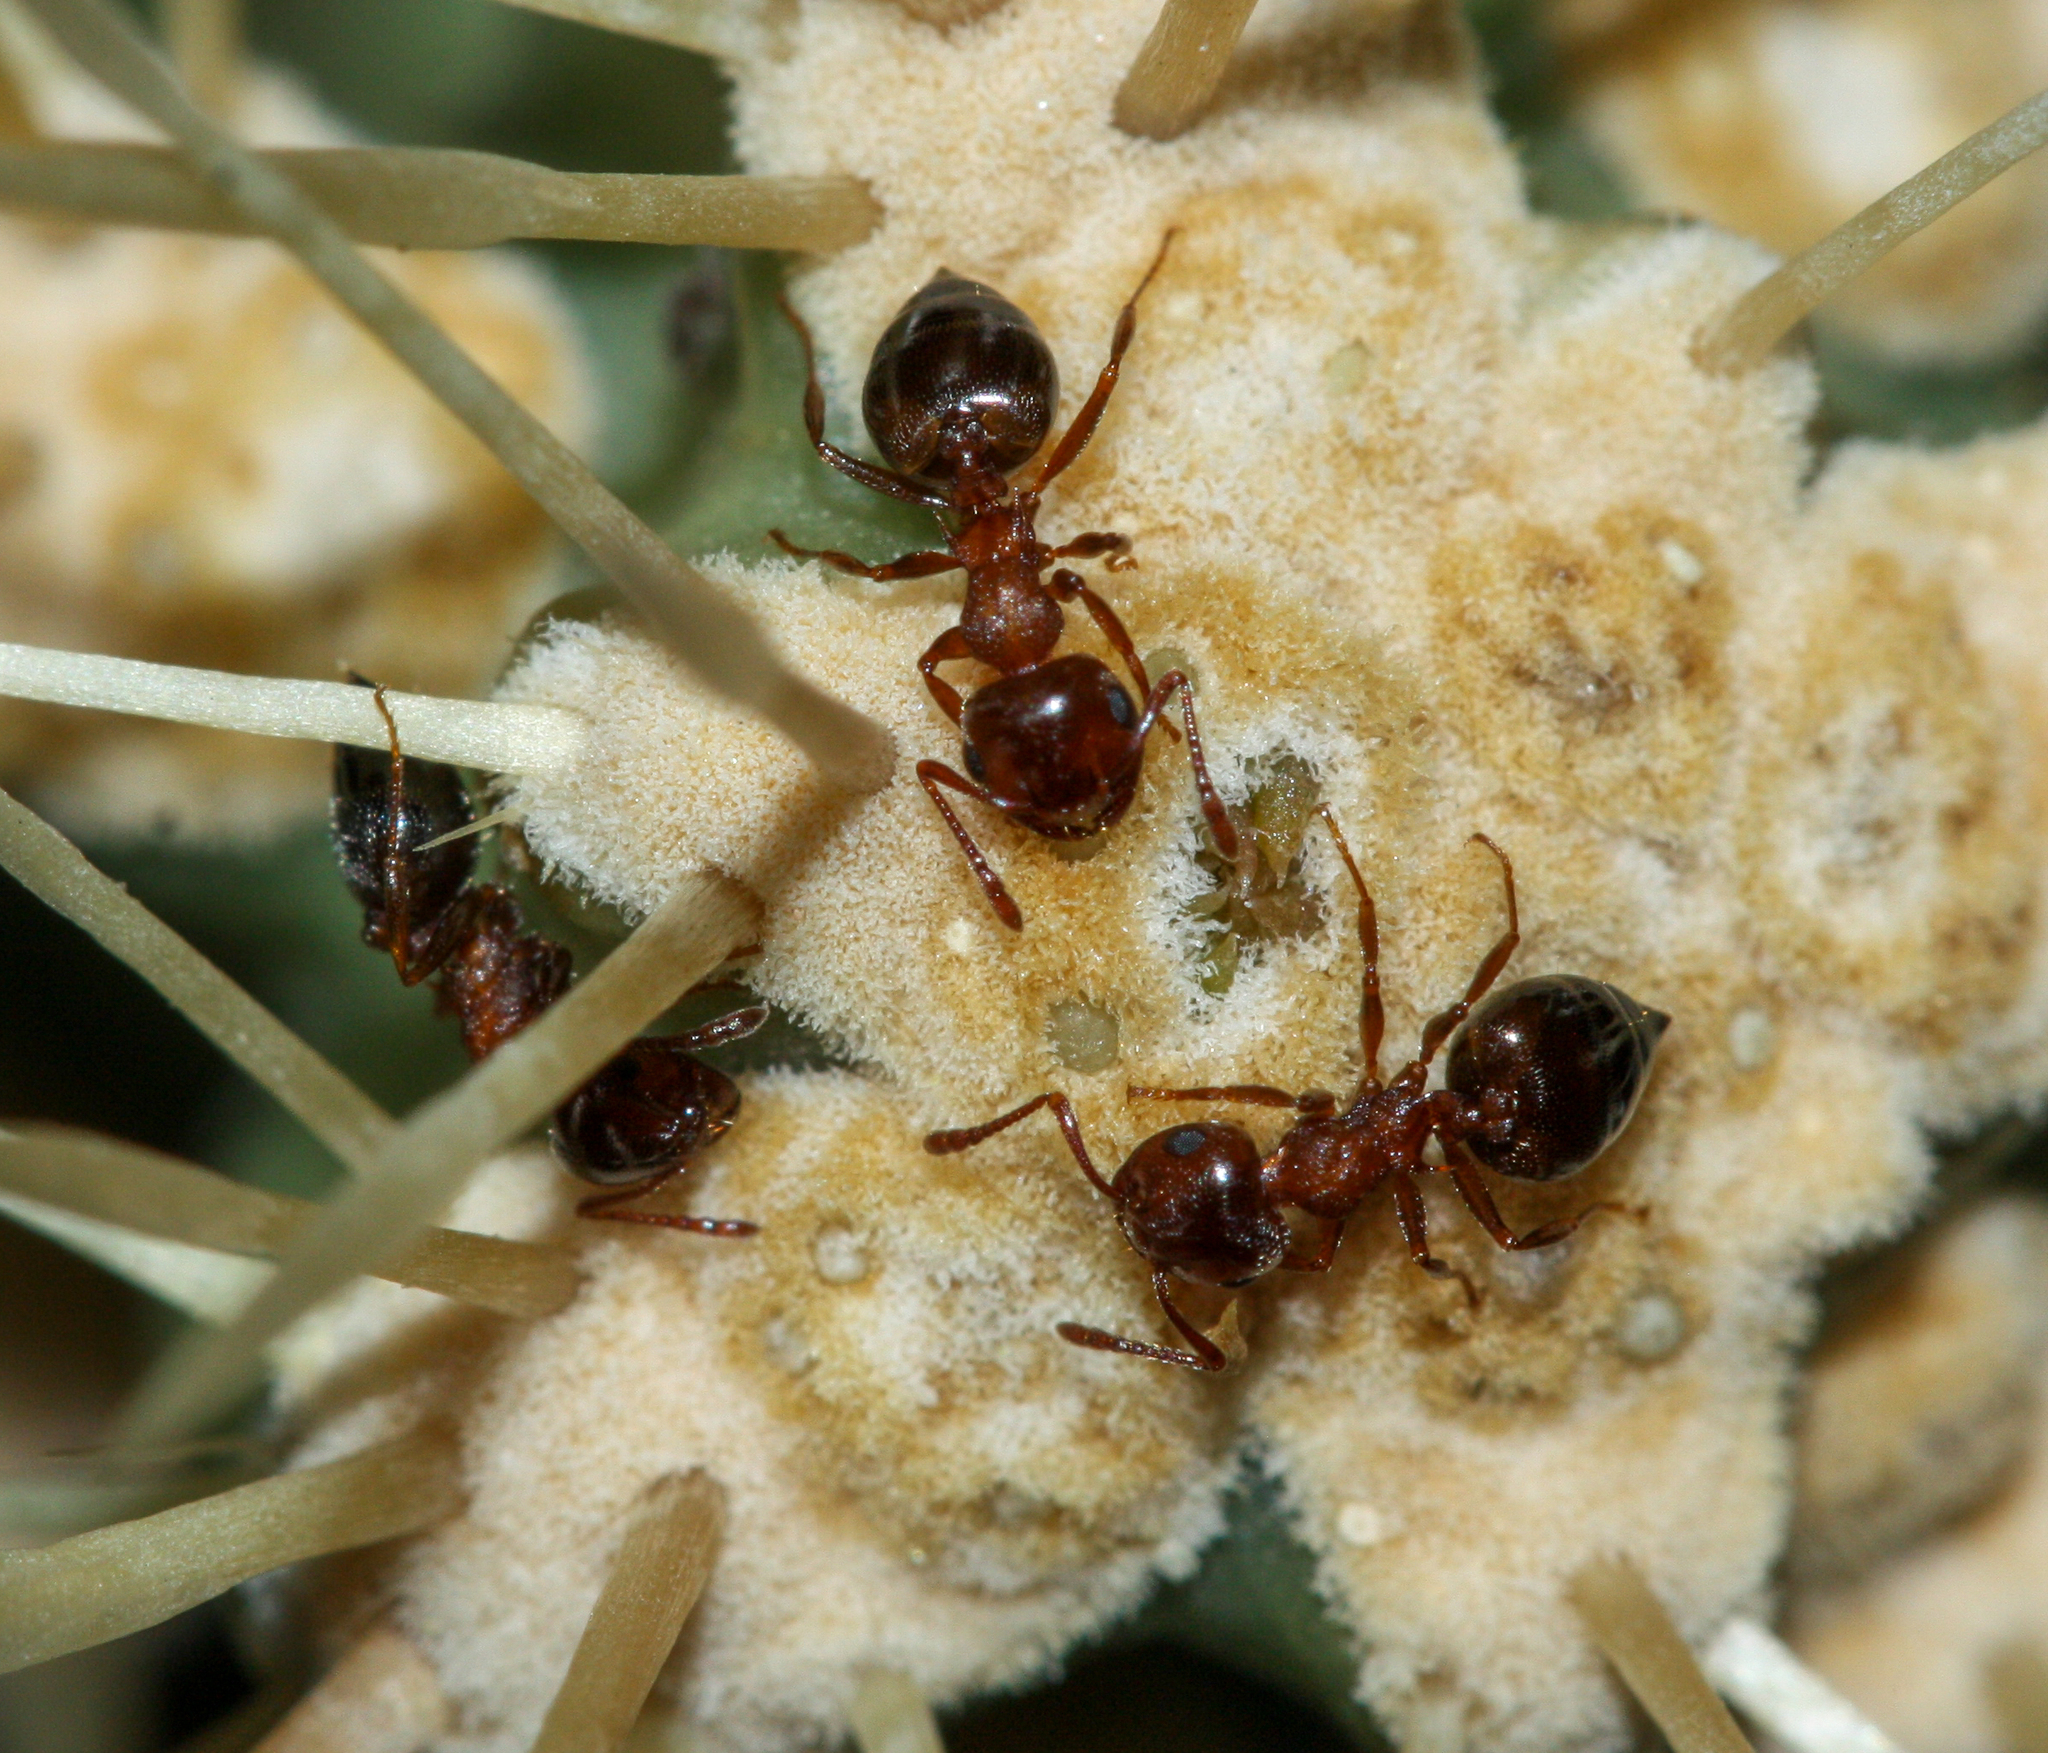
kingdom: Animalia
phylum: Arthropoda
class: Insecta
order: Hymenoptera
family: Formicidae
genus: Crematogaster
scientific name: Crematogaster
